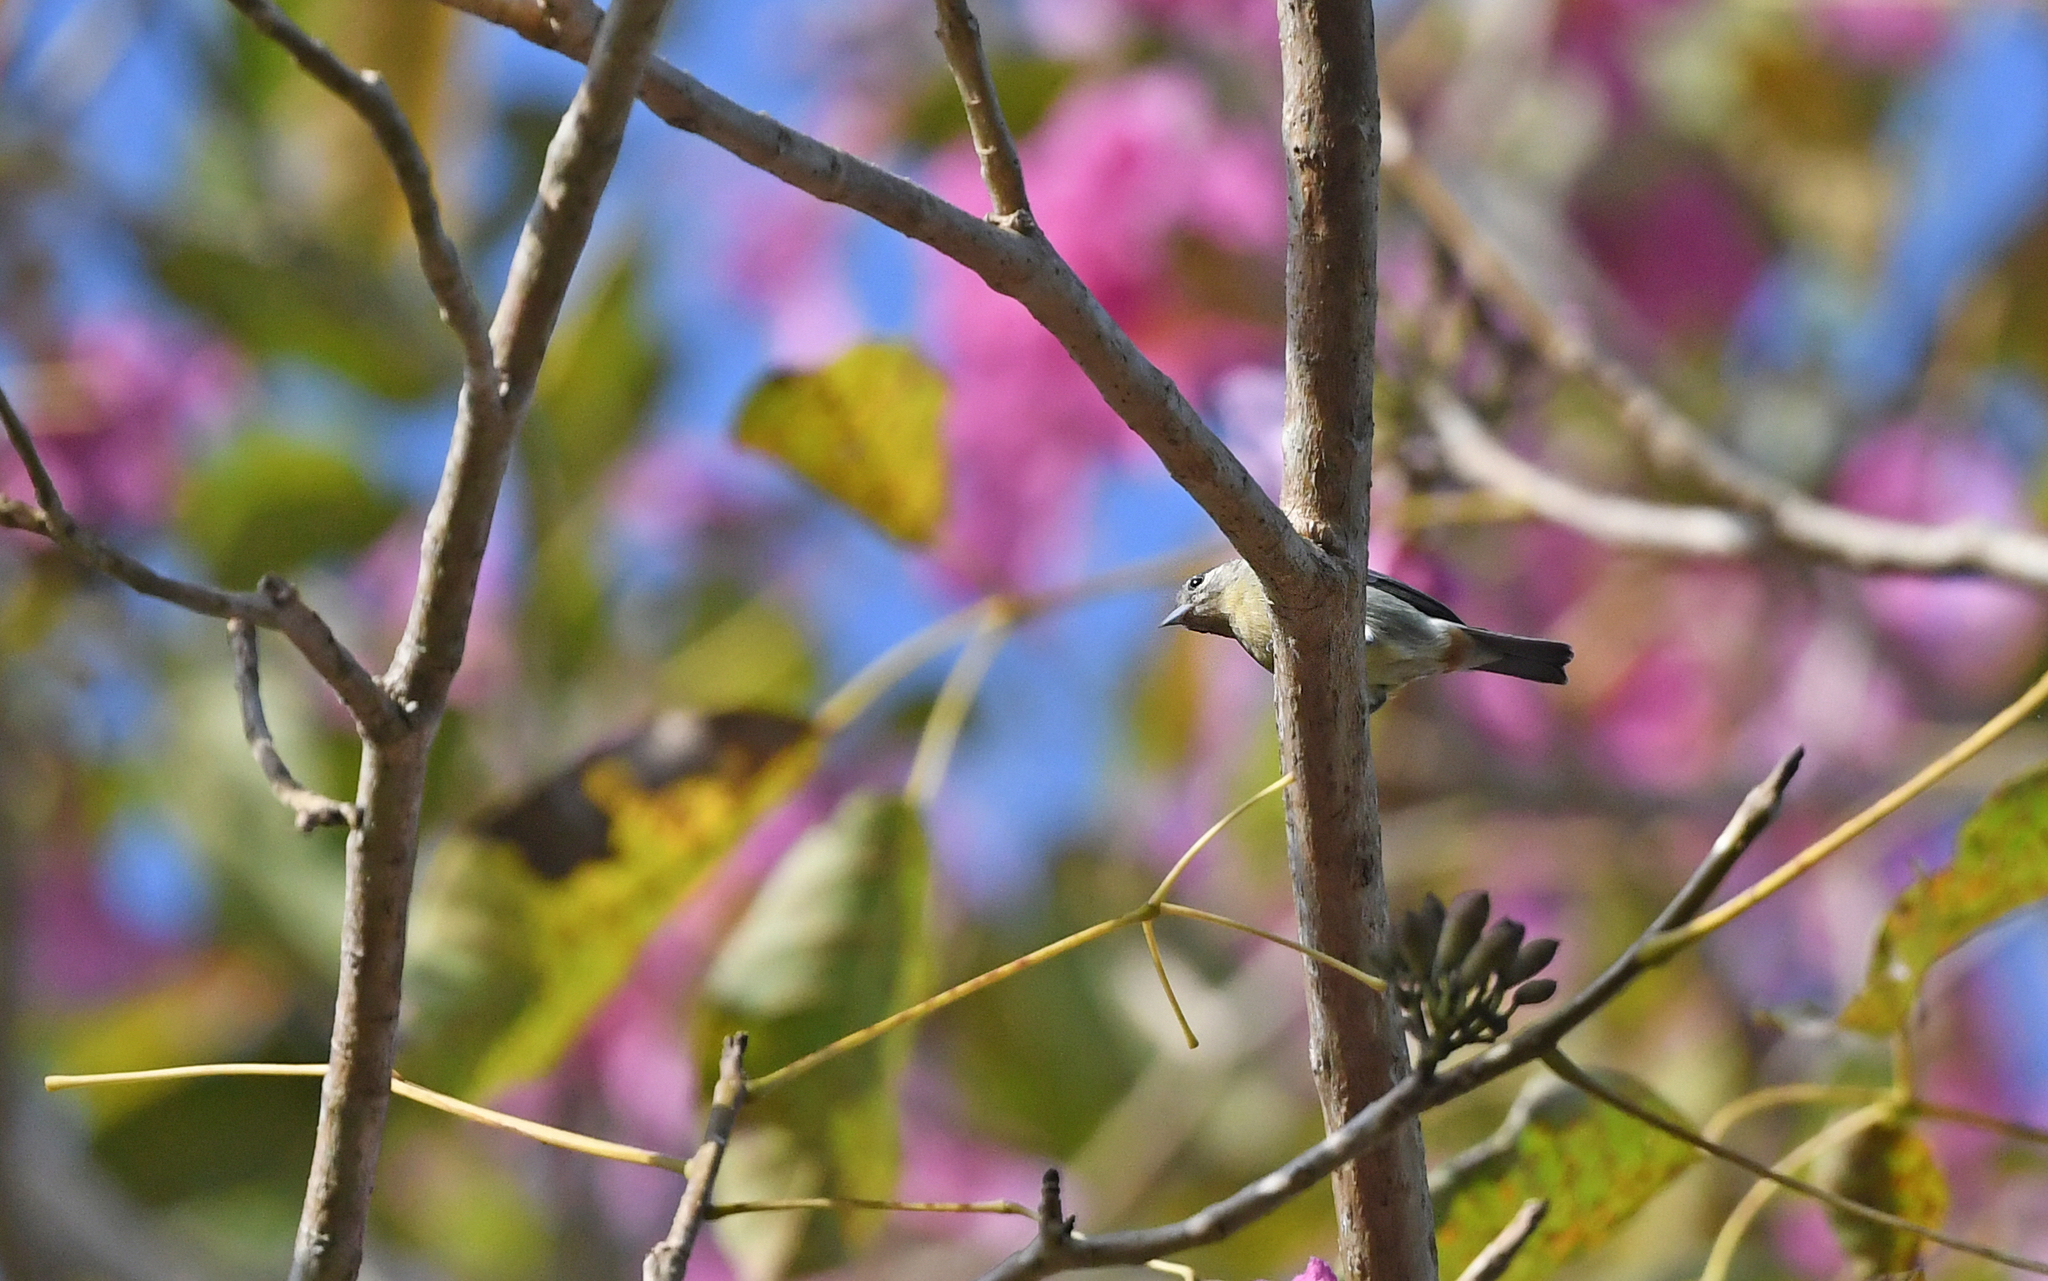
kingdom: Animalia
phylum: Chordata
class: Aves
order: Passeriformes
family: Thraupidae
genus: Conirostrum
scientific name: Conirostrum leucogenys
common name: White-eared conebill
